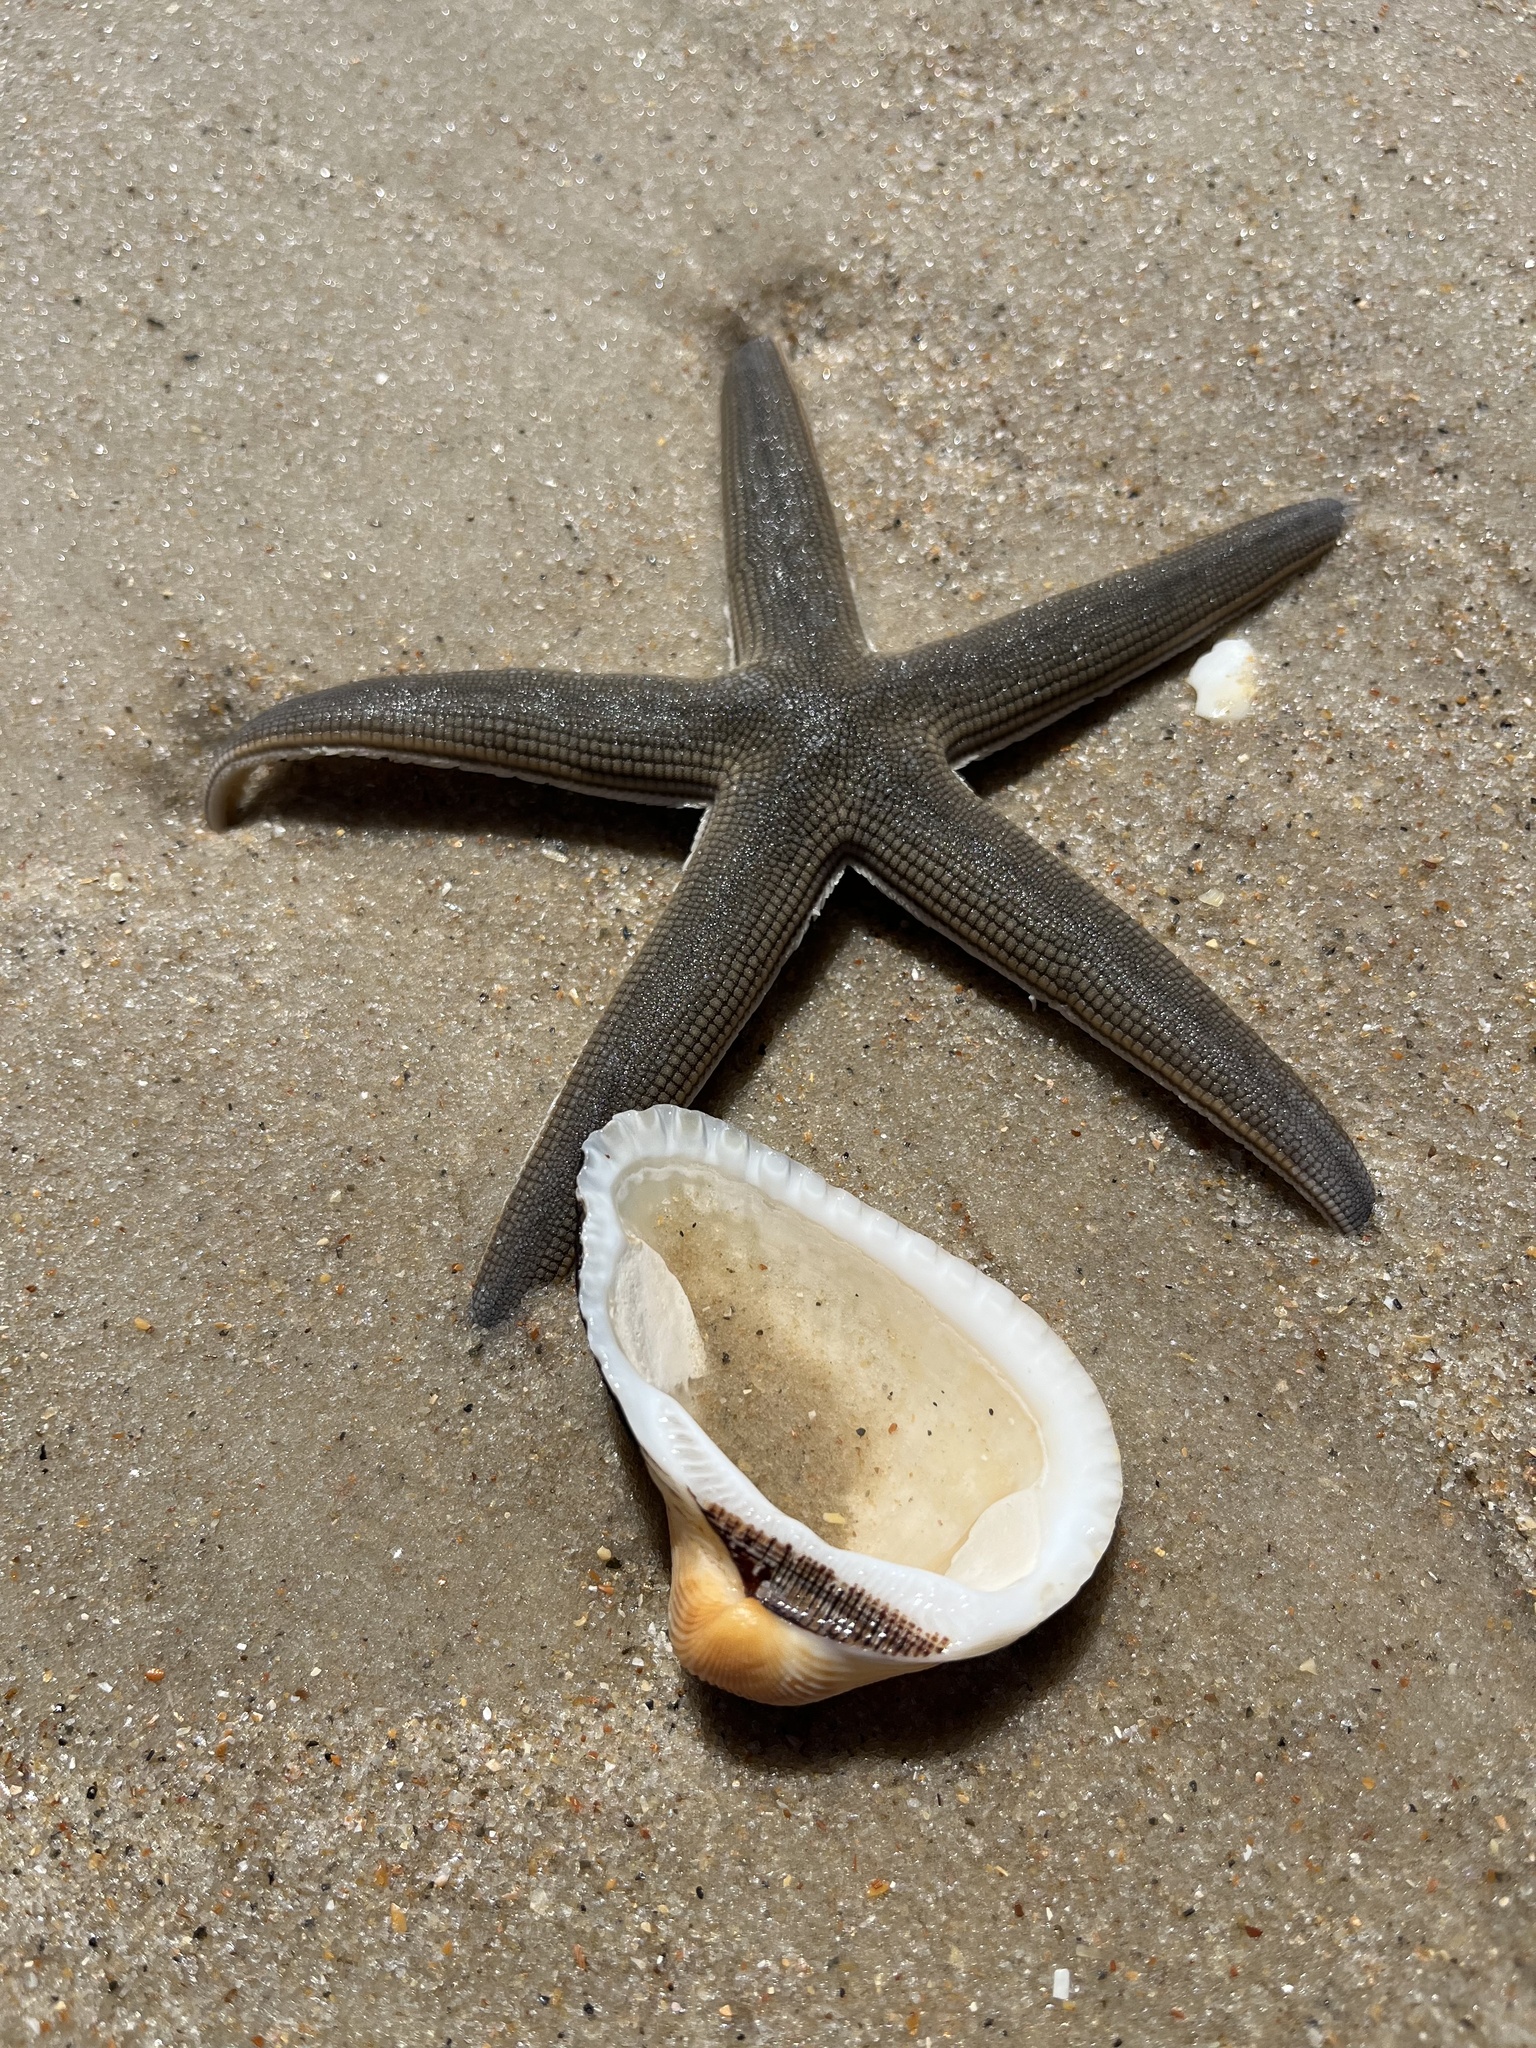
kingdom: Animalia
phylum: Echinodermata
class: Asteroidea
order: Paxillosida
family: Luidiidae
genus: Luidia
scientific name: Luidia clathrata
